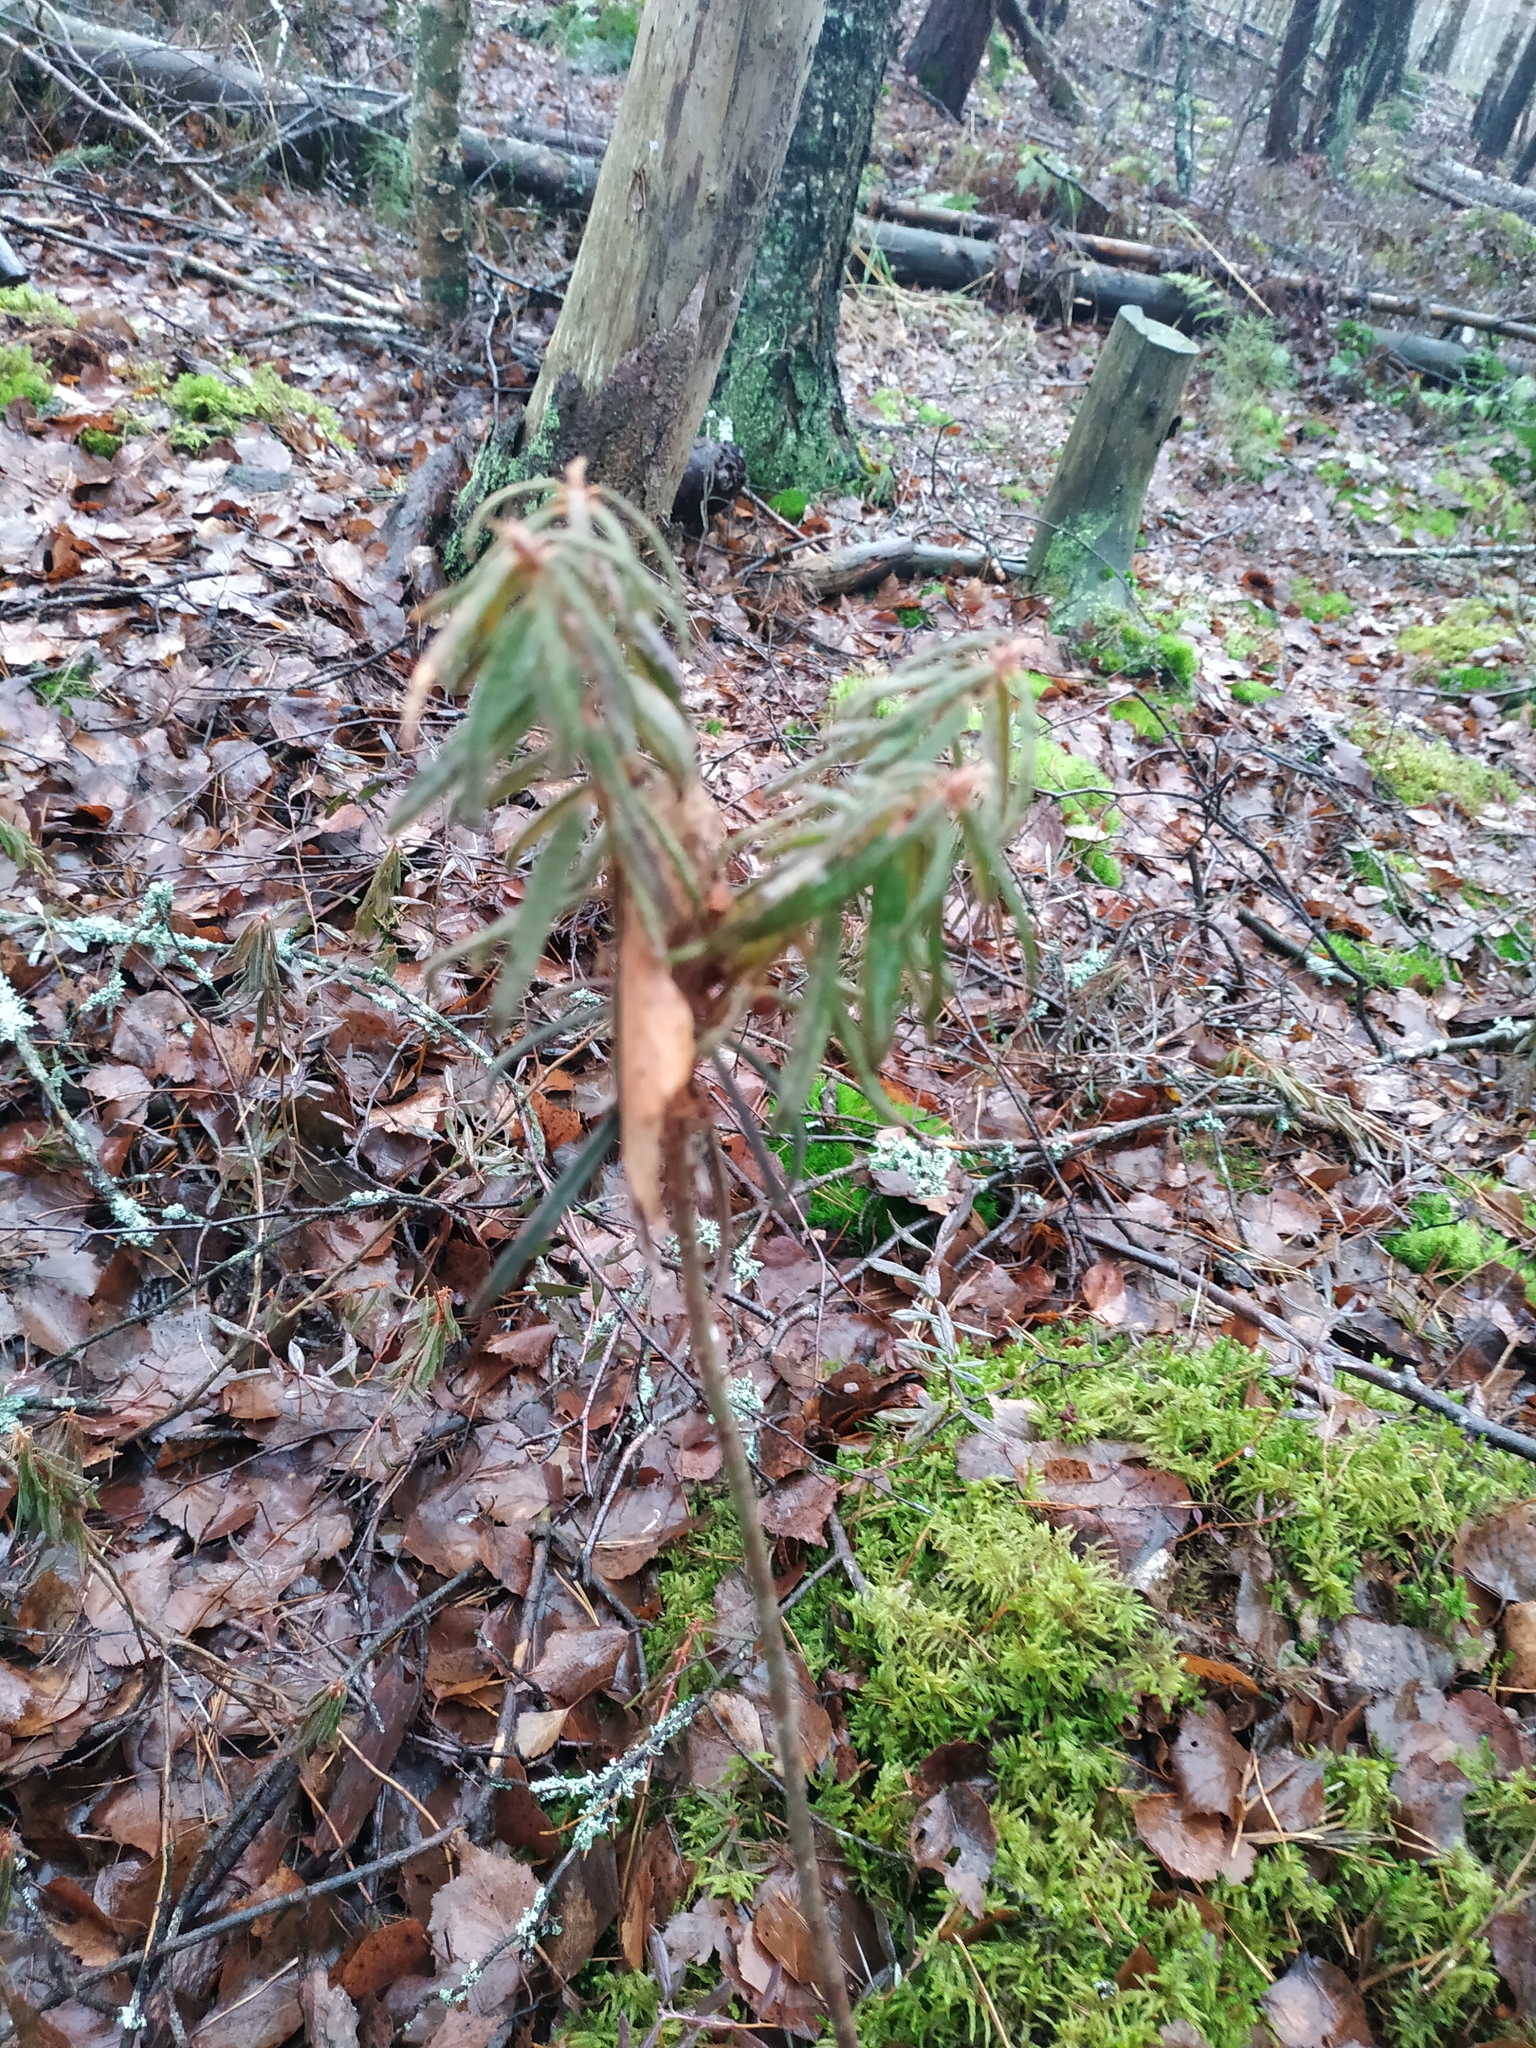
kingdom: Plantae
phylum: Tracheophyta
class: Magnoliopsida
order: Ericales
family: Ericaceae
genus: Rhododendron
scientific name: Rhododendron tomentosum
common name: Marsh labrador tea
